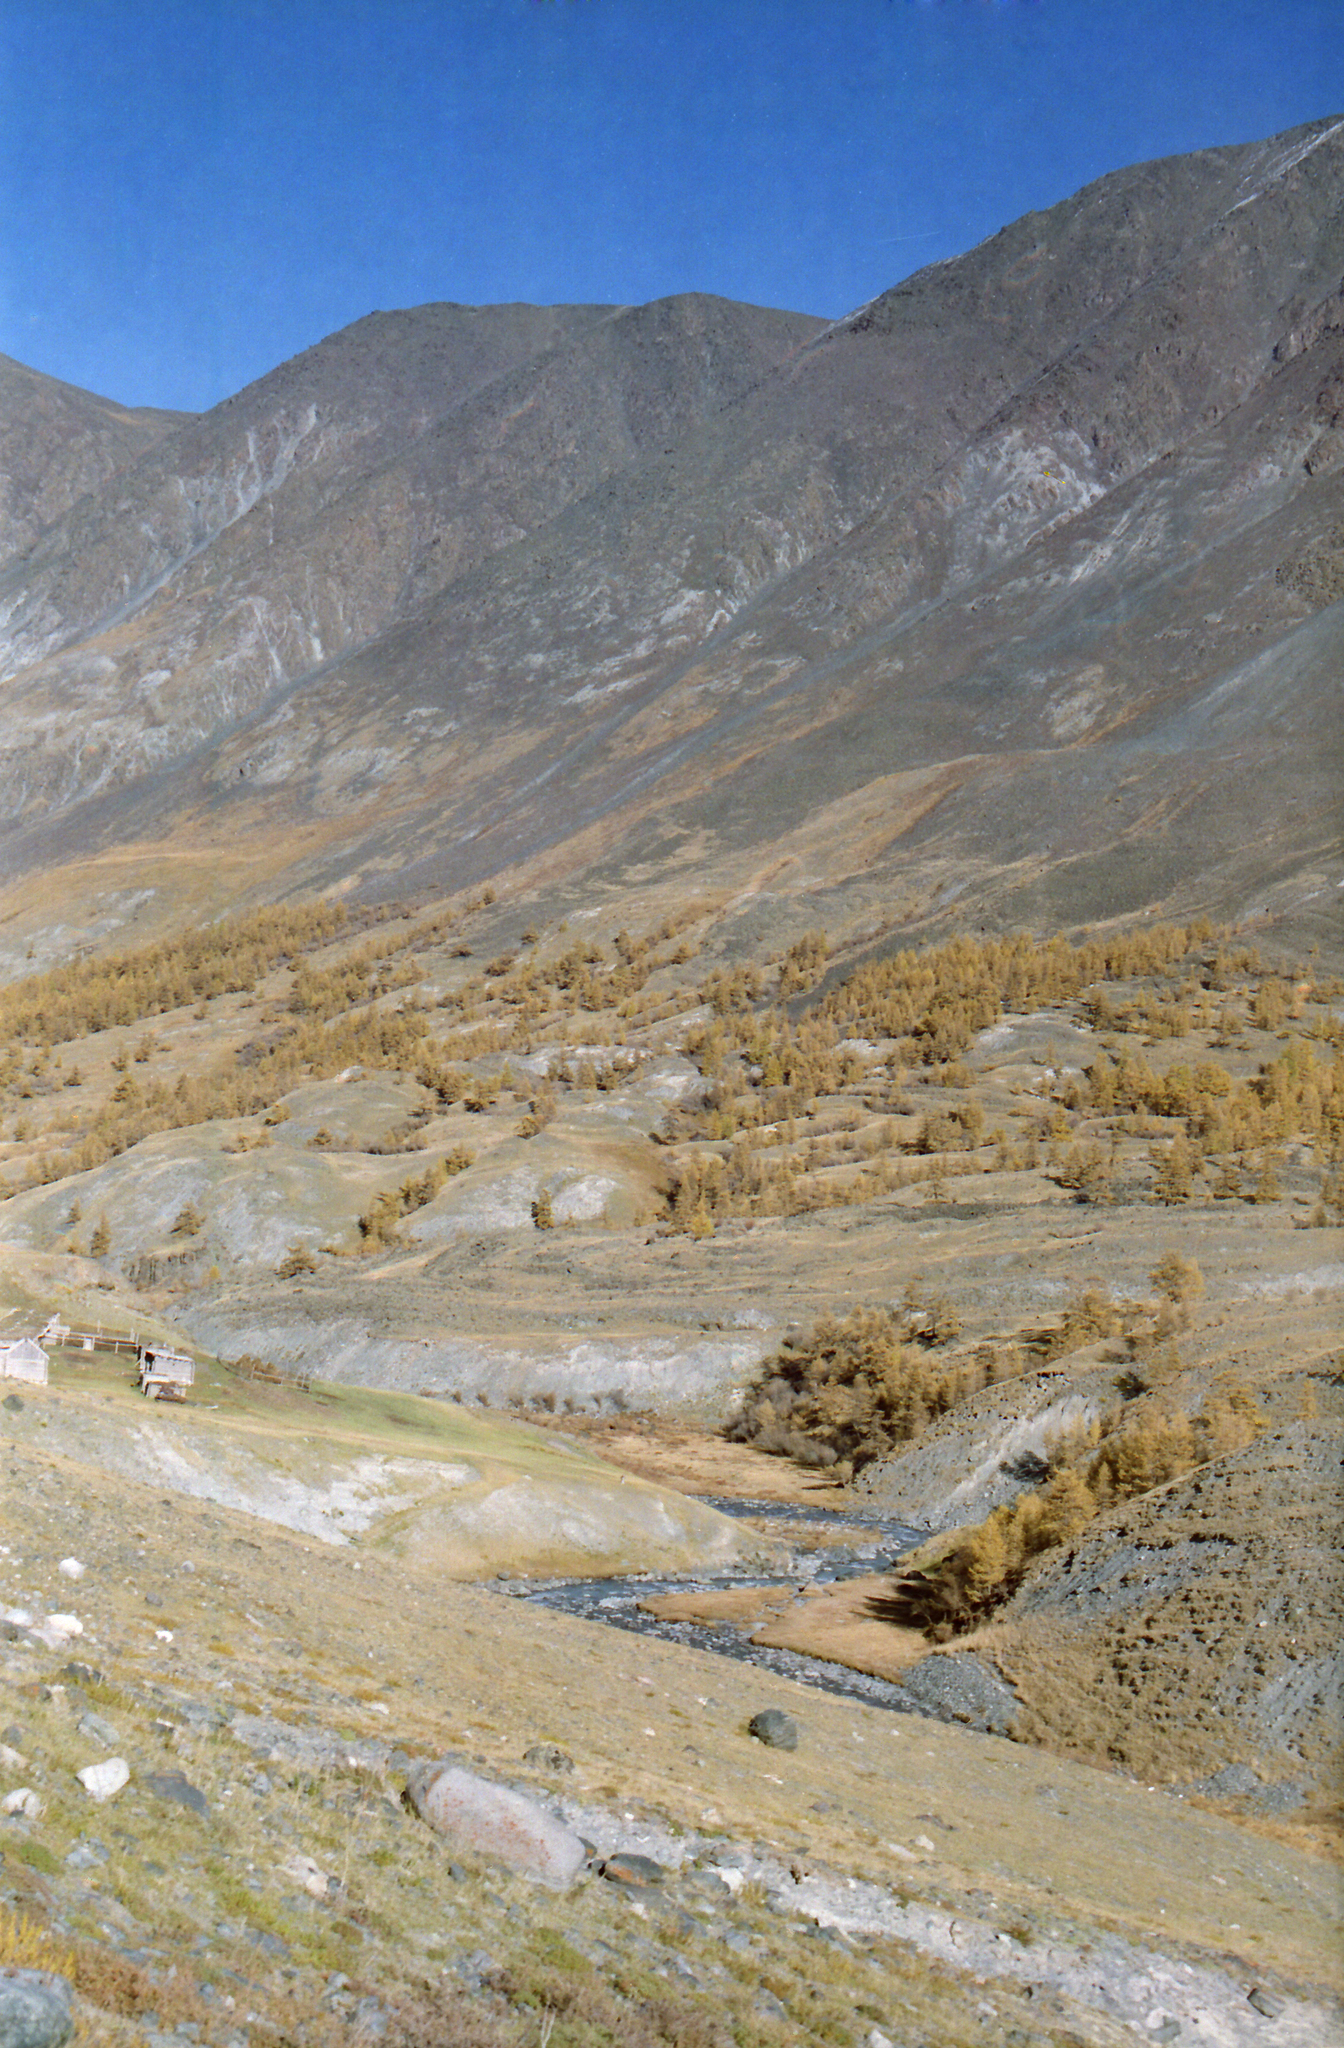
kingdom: Plantae
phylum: Tracheophyta
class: Pinopsida
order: Pinales
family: Pinaceae
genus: Larix
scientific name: Larix sibirica
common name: Siberian larch
